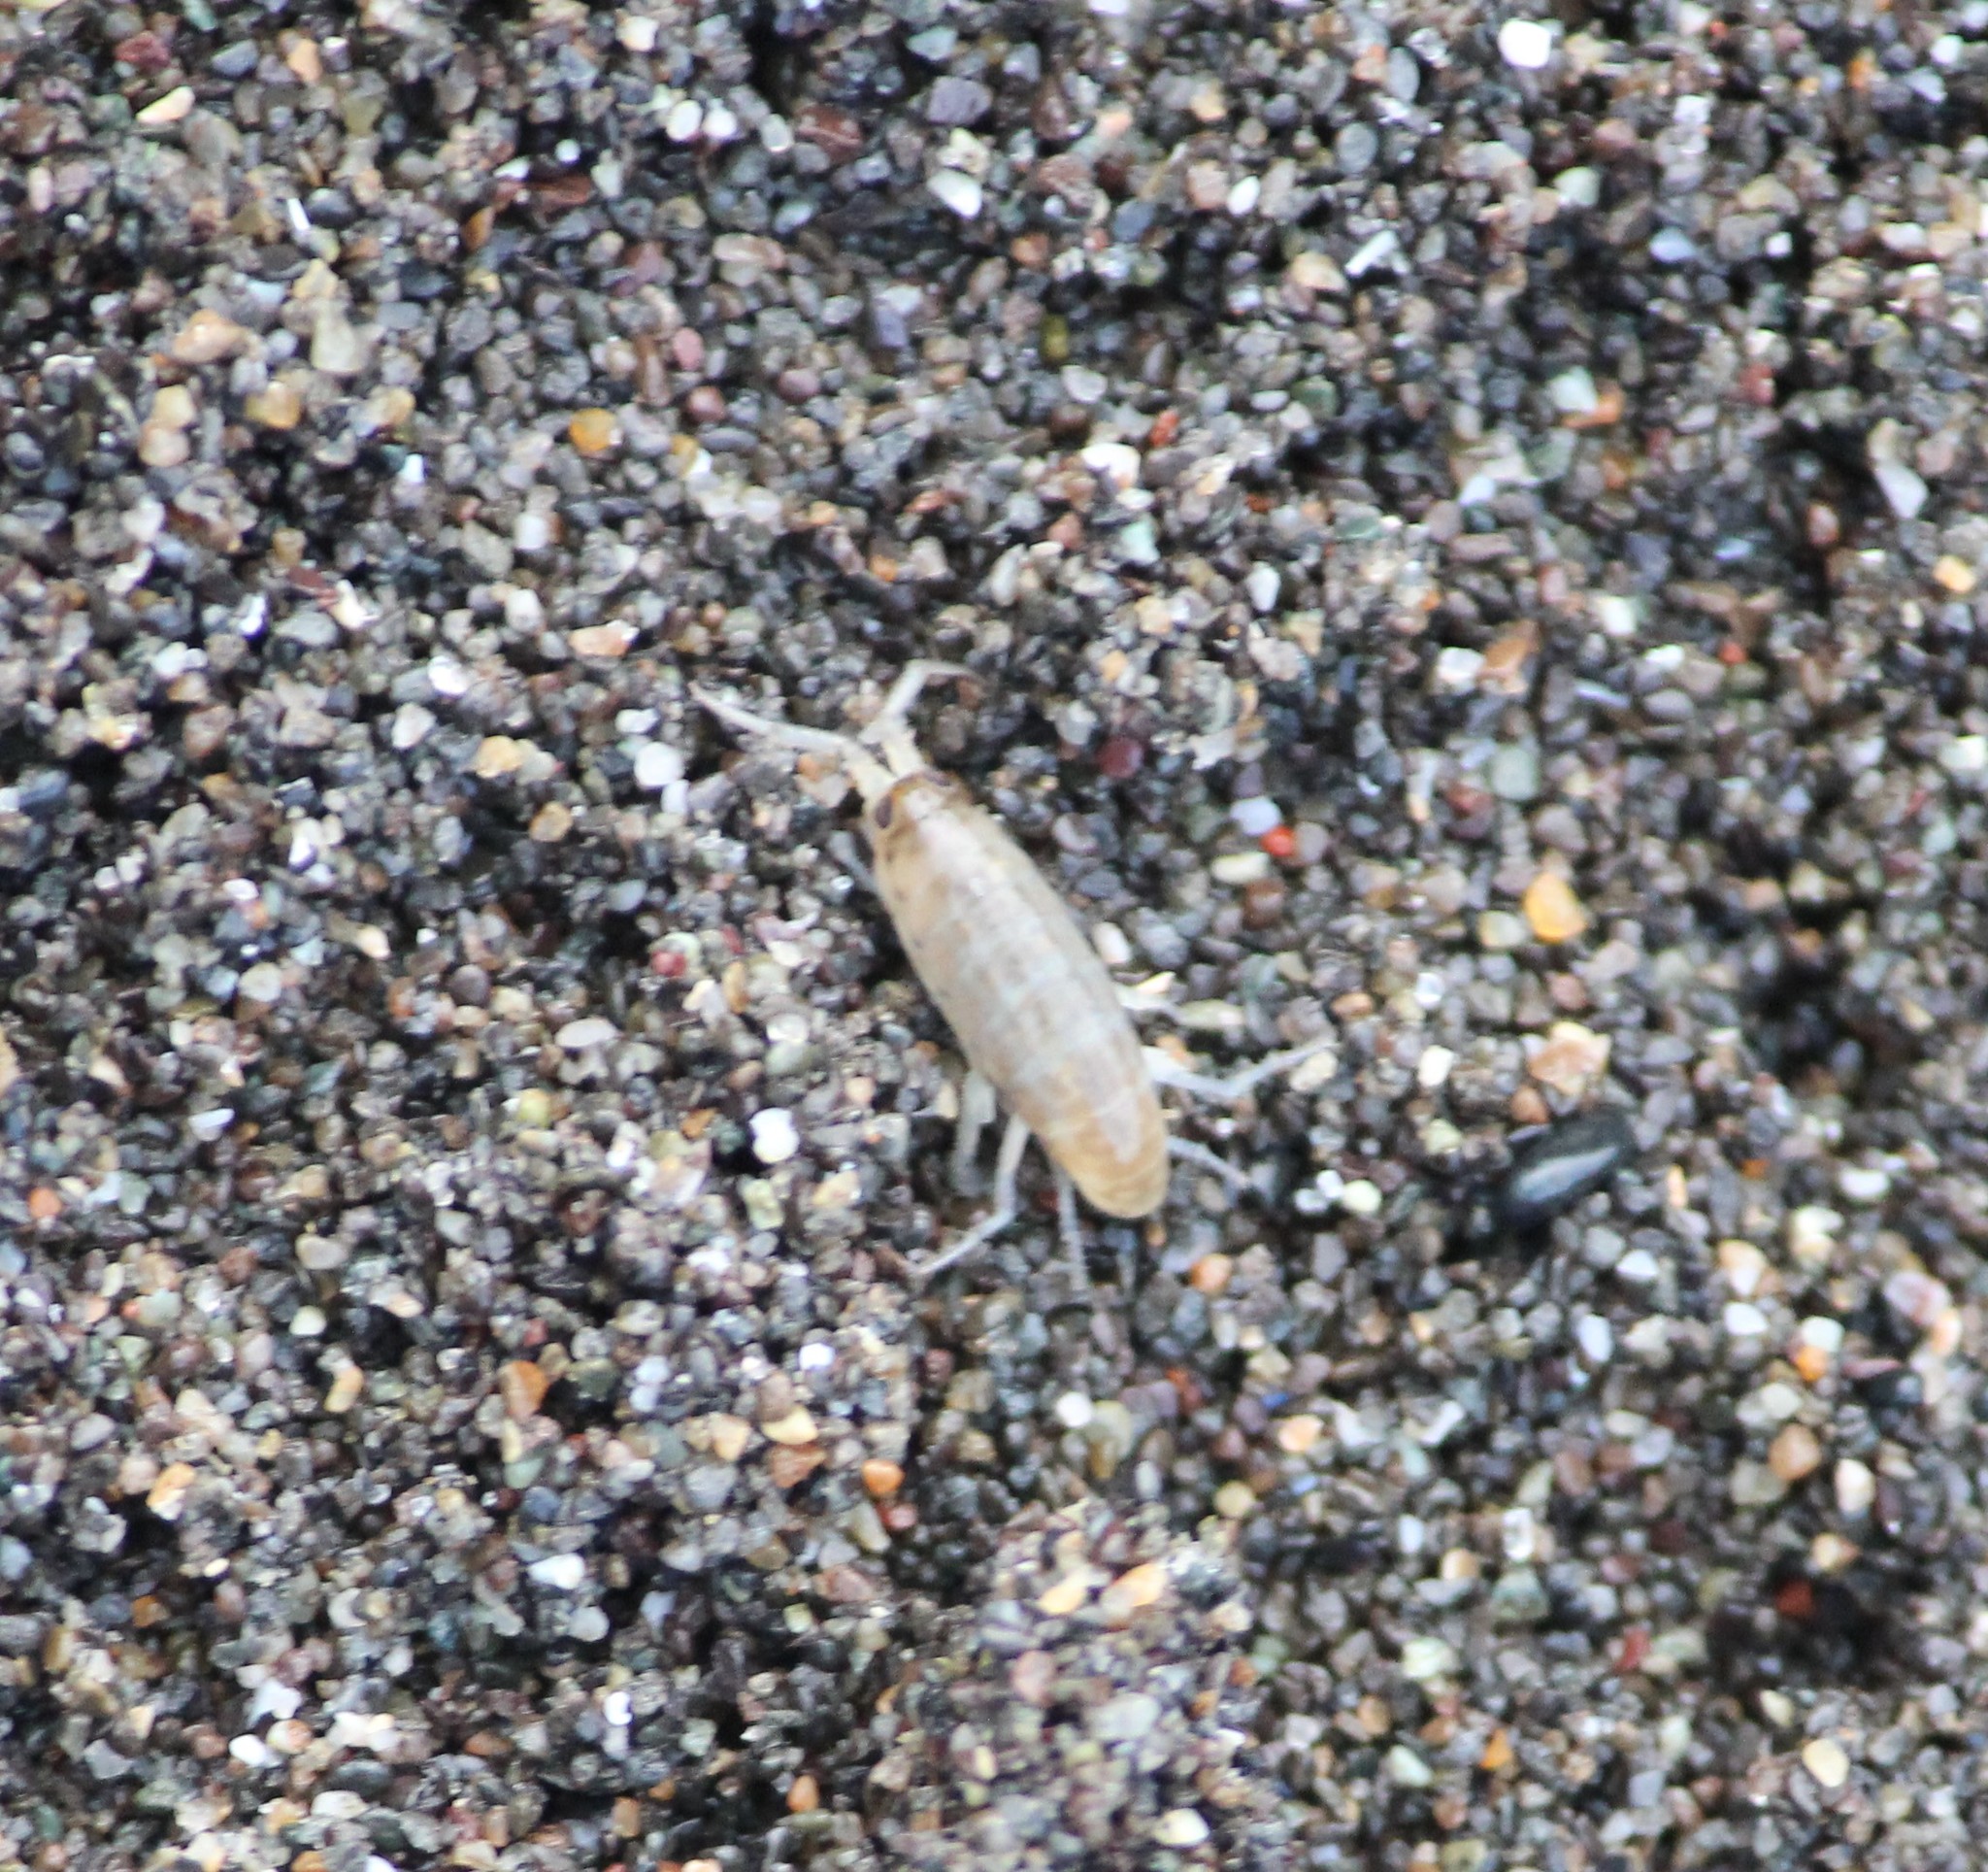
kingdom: Animalia
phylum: Arthropoda
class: Malacostraca
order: Amphipoda
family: Talitridae
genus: Megalorchestia
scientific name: Megalorchestia pugettensis
